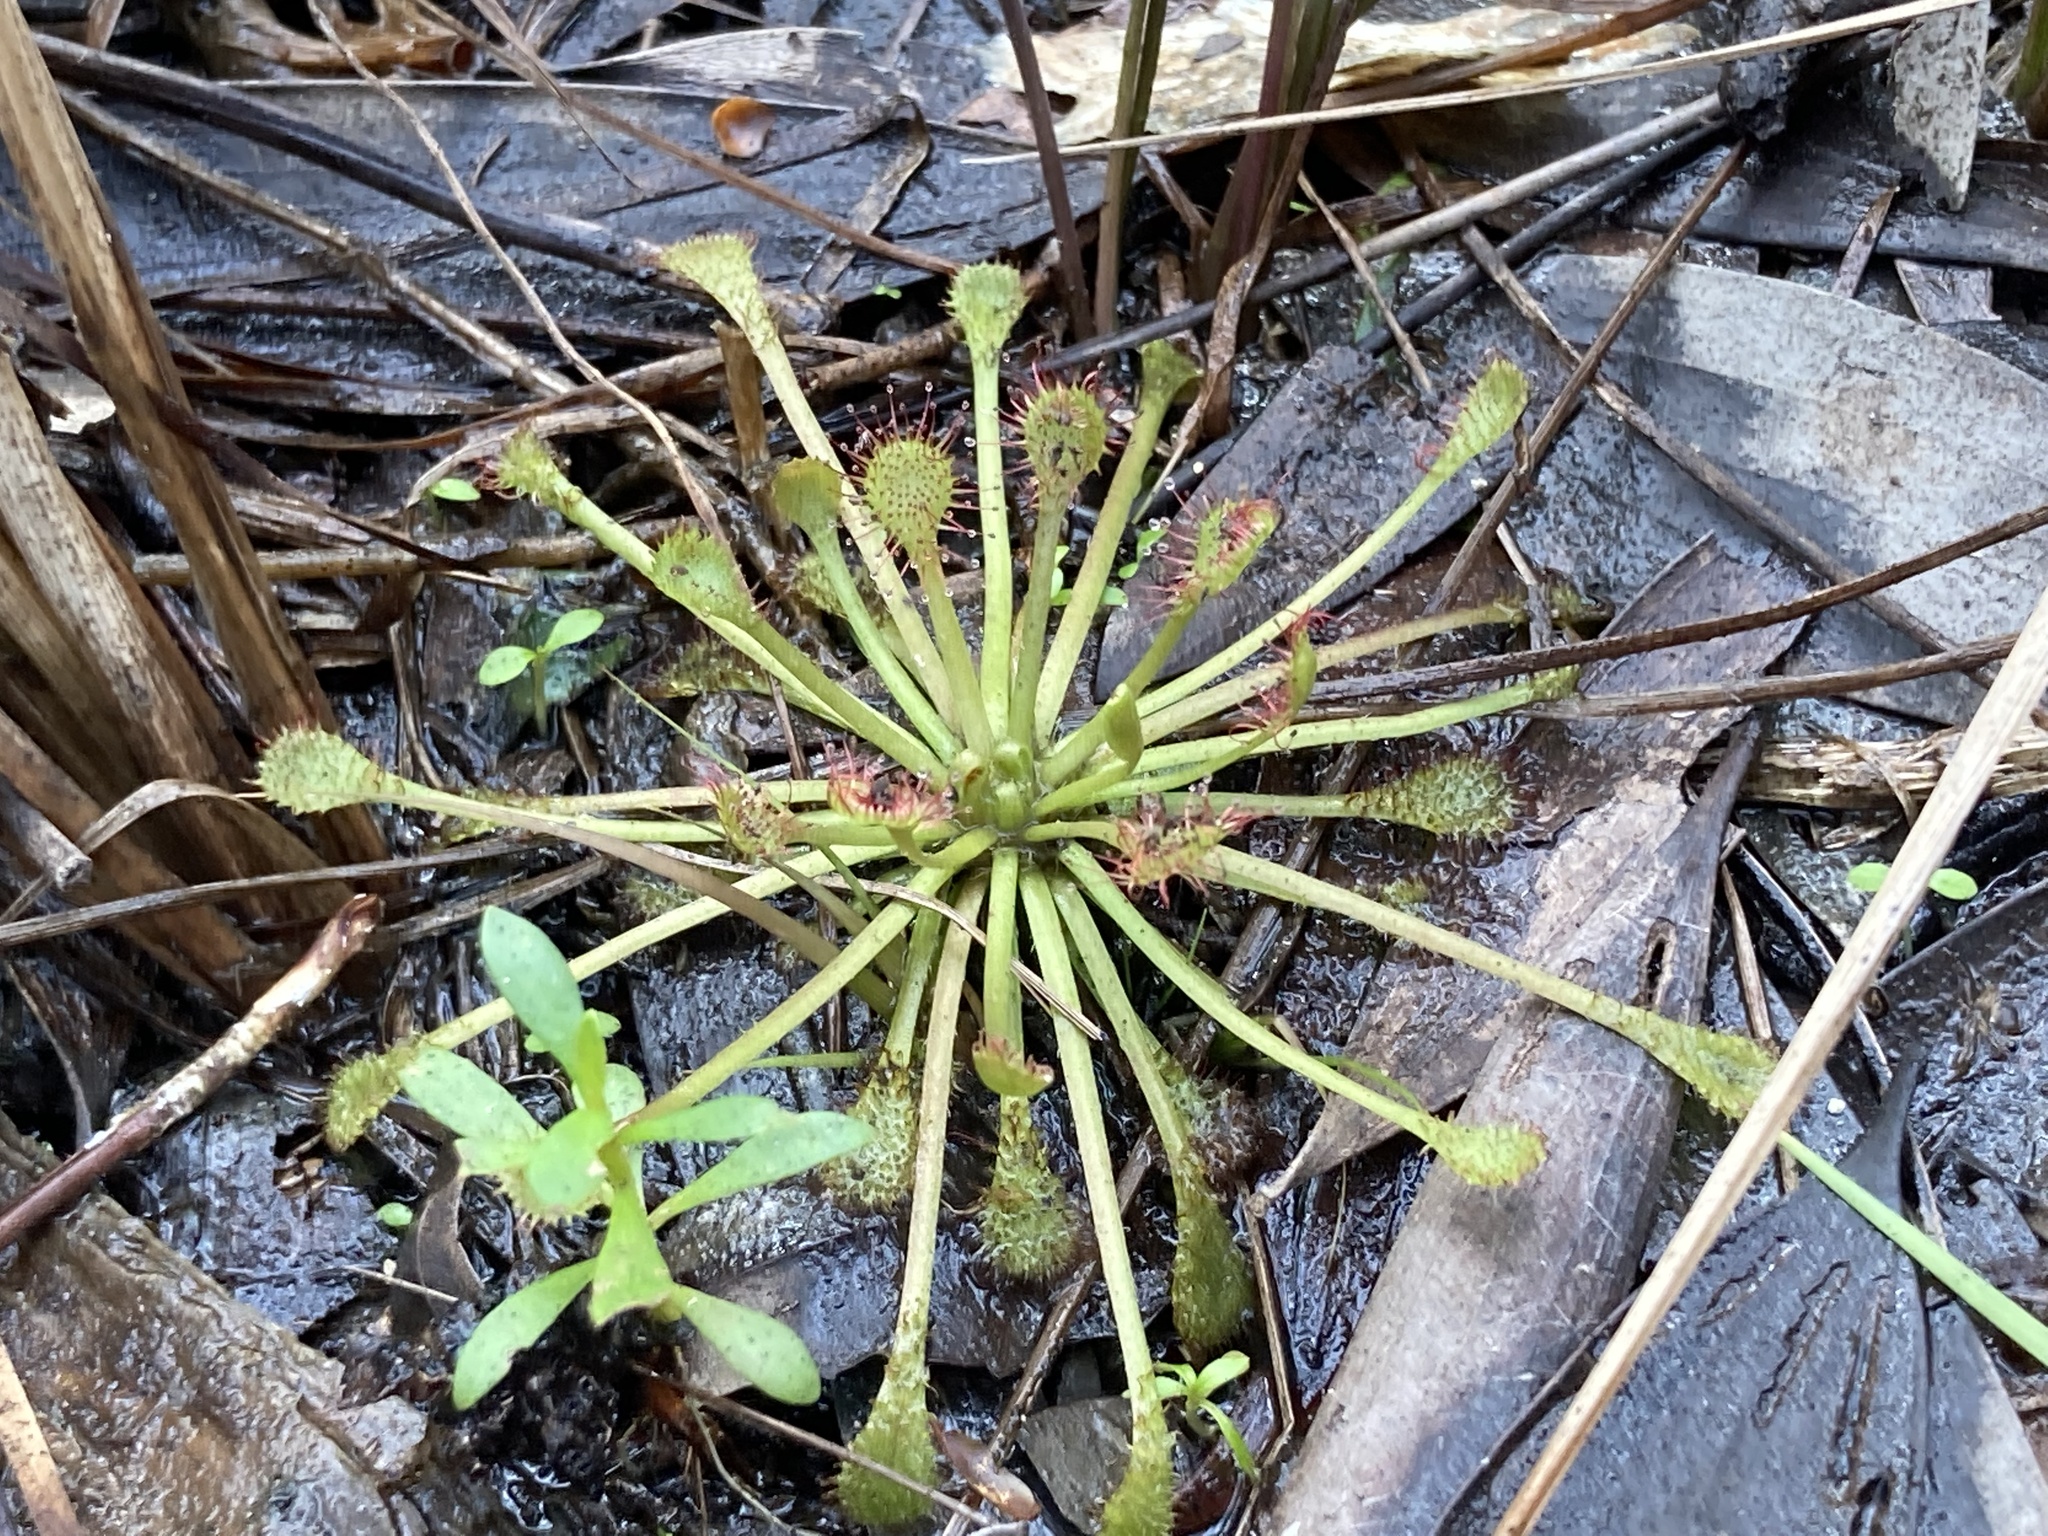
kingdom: Plantae
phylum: Tracheophyta
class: Magnoliopsida
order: Caryophyllales
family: Droseraceae
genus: Drosera
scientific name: Drosera capillaris
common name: Pink sundew
